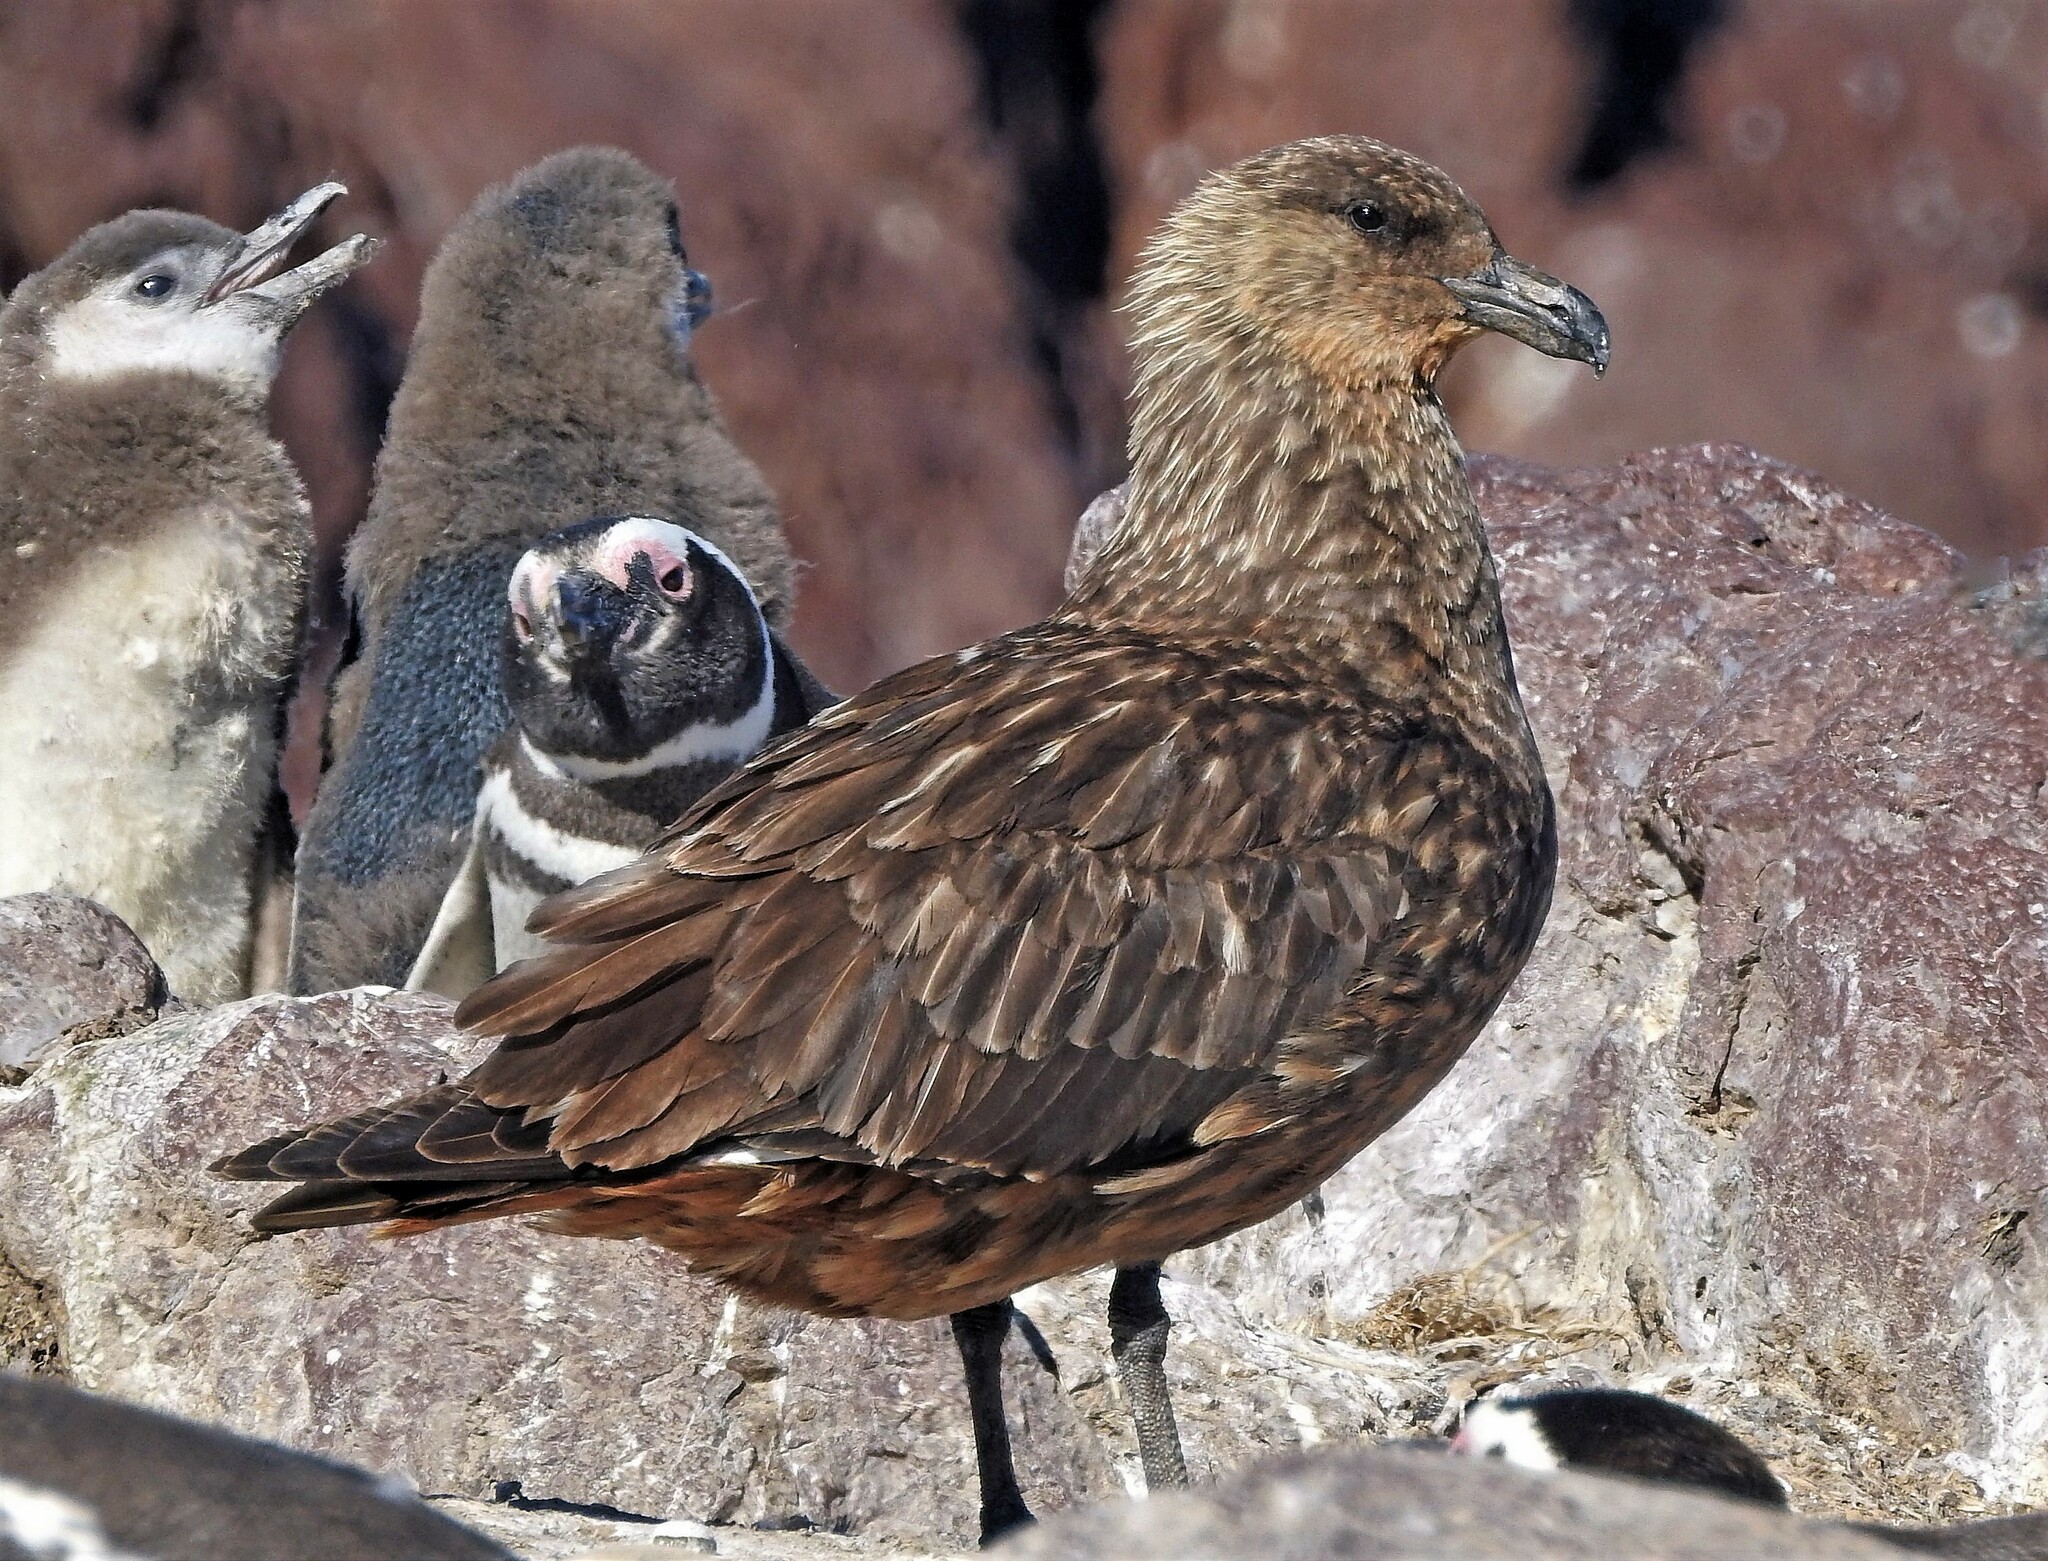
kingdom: Animalia
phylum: Chordata
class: Aves
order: Charadriiformes
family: Stercorariidae
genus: Stercorarius
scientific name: Stercorarius chilensis
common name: Chilean skua
